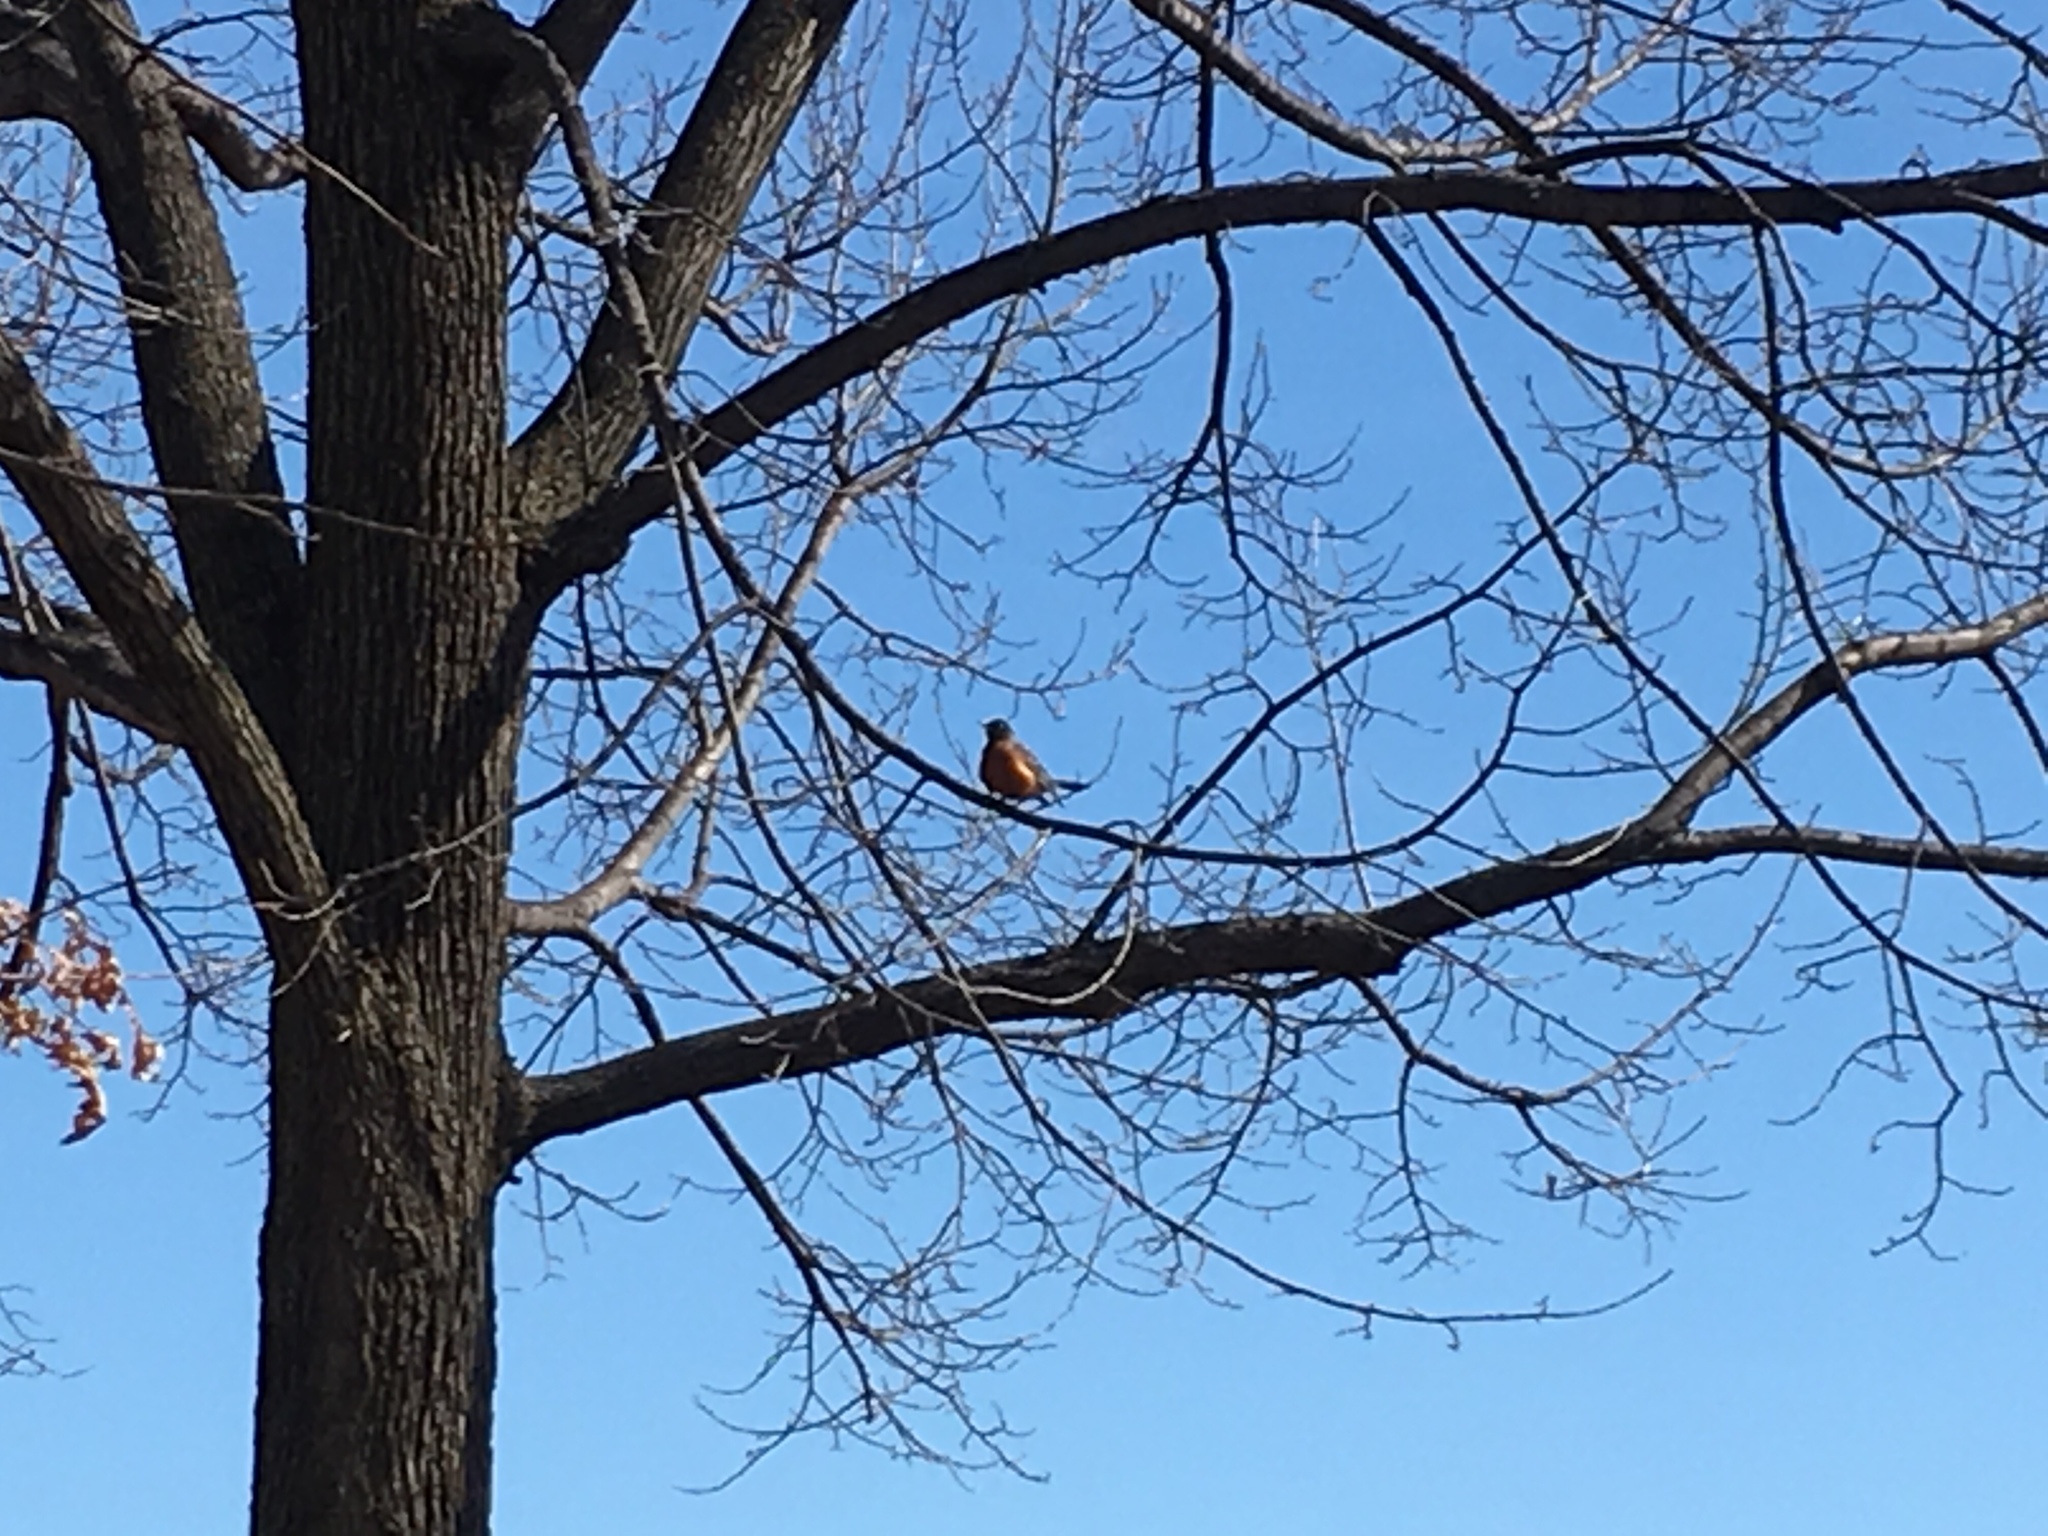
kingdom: Animalia
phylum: Chordata
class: Aves
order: Passeriformes
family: Turdidae
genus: Turdus
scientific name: Turdus migratorius
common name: American robin
